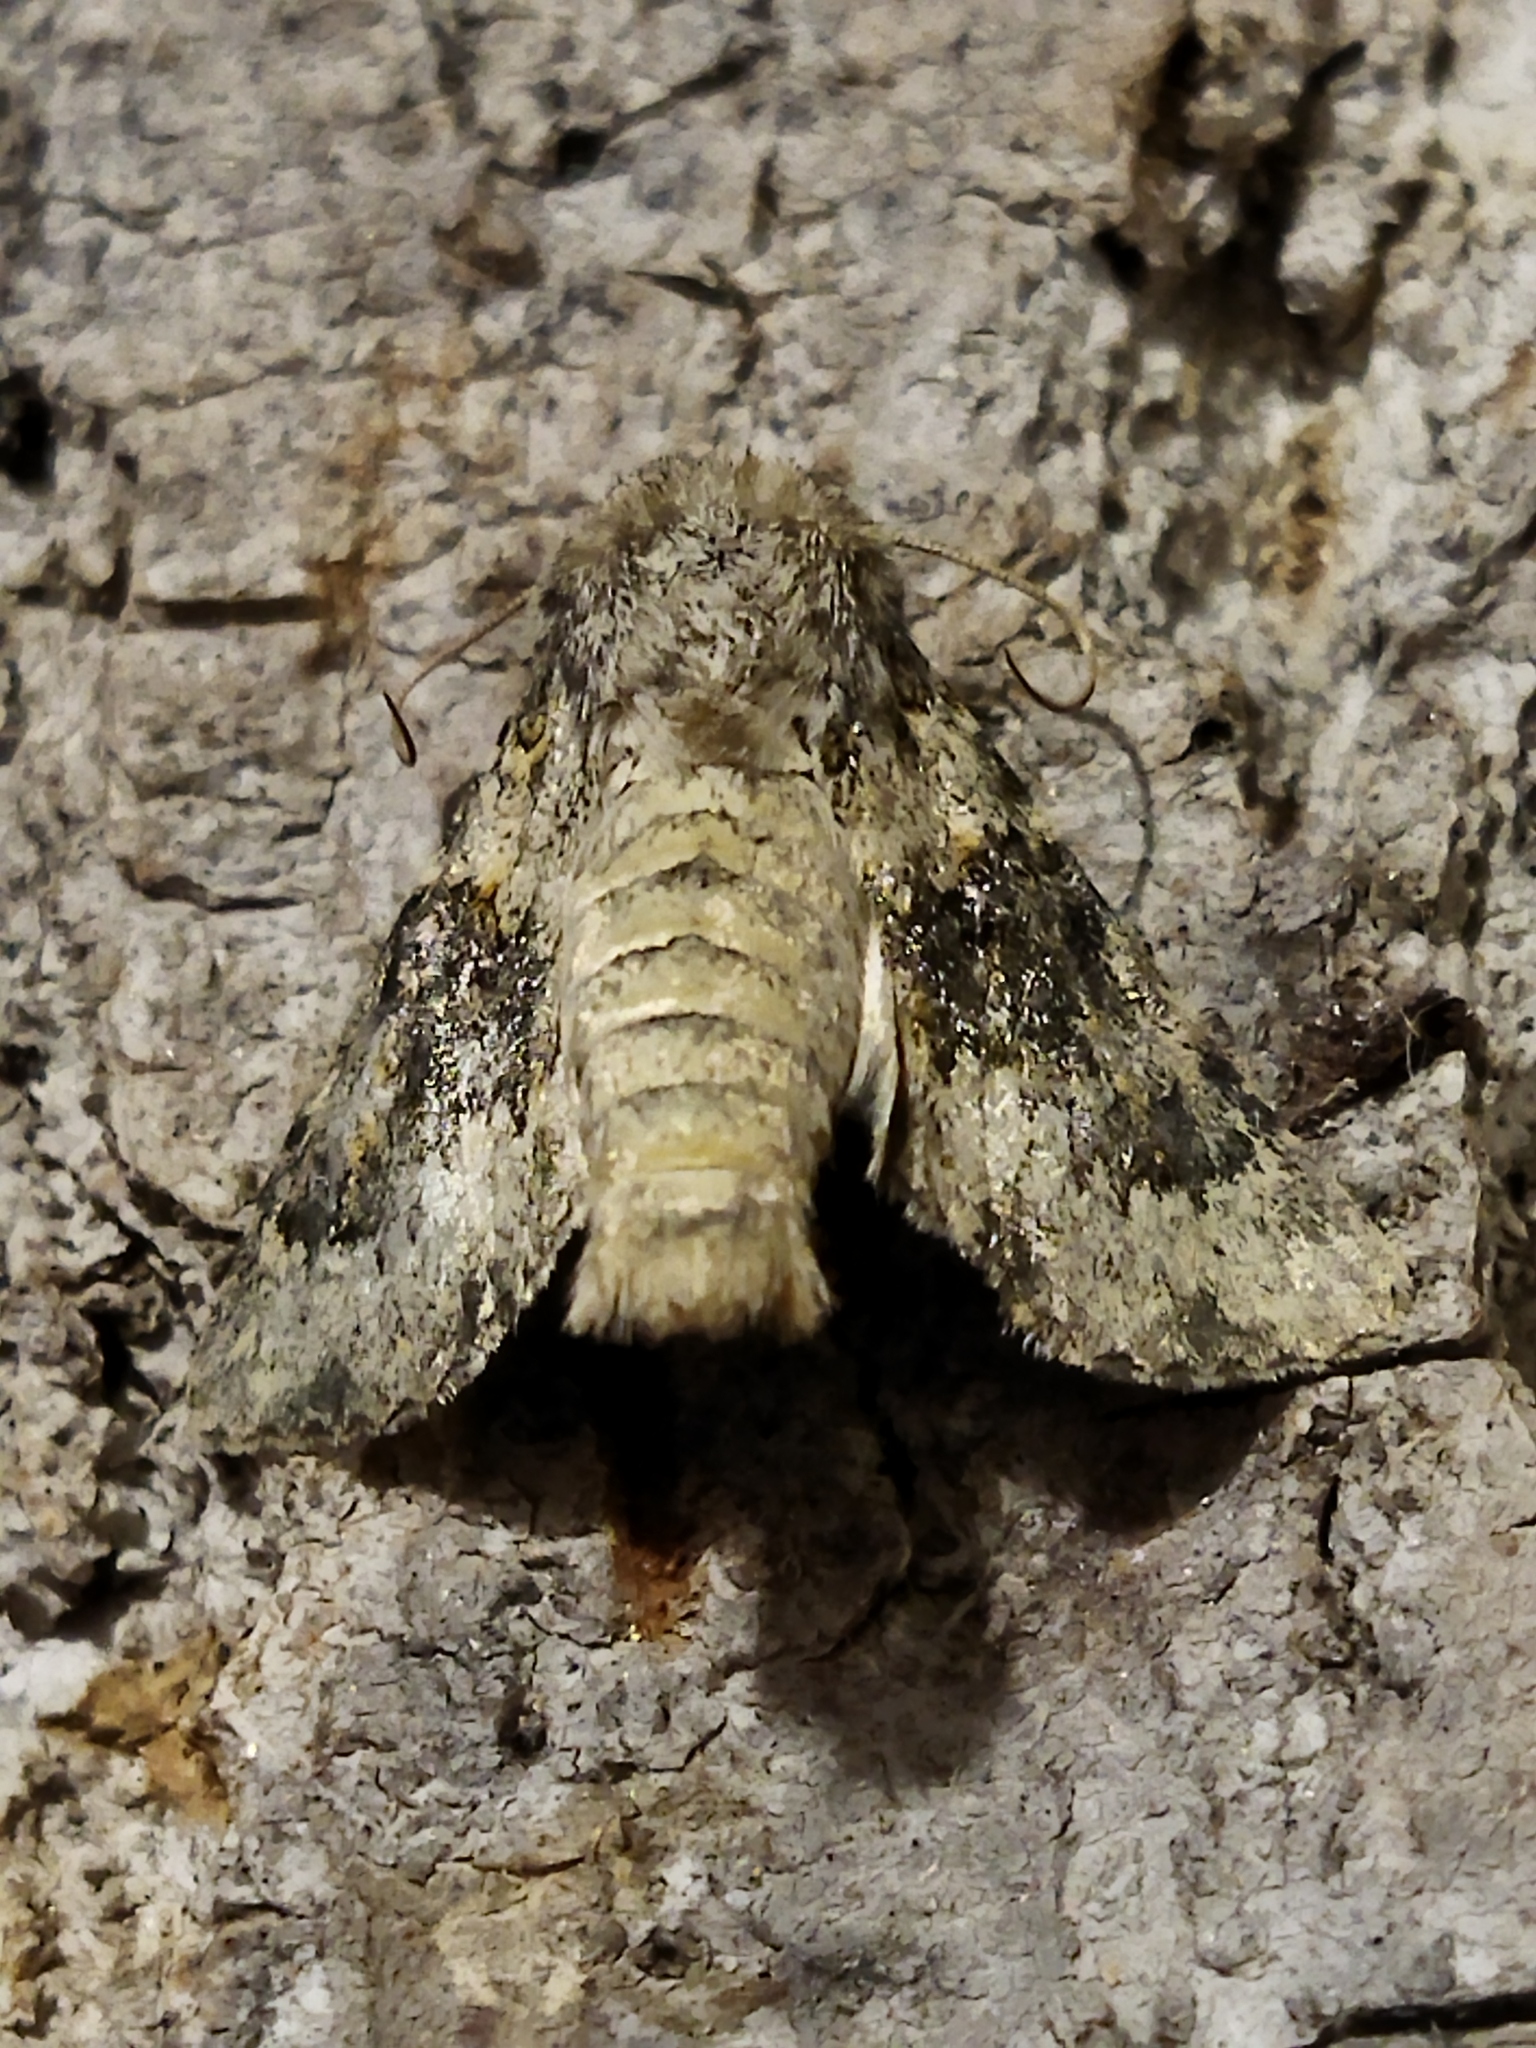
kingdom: Animalia
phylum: Arthropoda
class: Insecta
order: Lepidoptera
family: Noctuidae
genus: Hecatera
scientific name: Hecatera dysodea
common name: Small ranunculus
